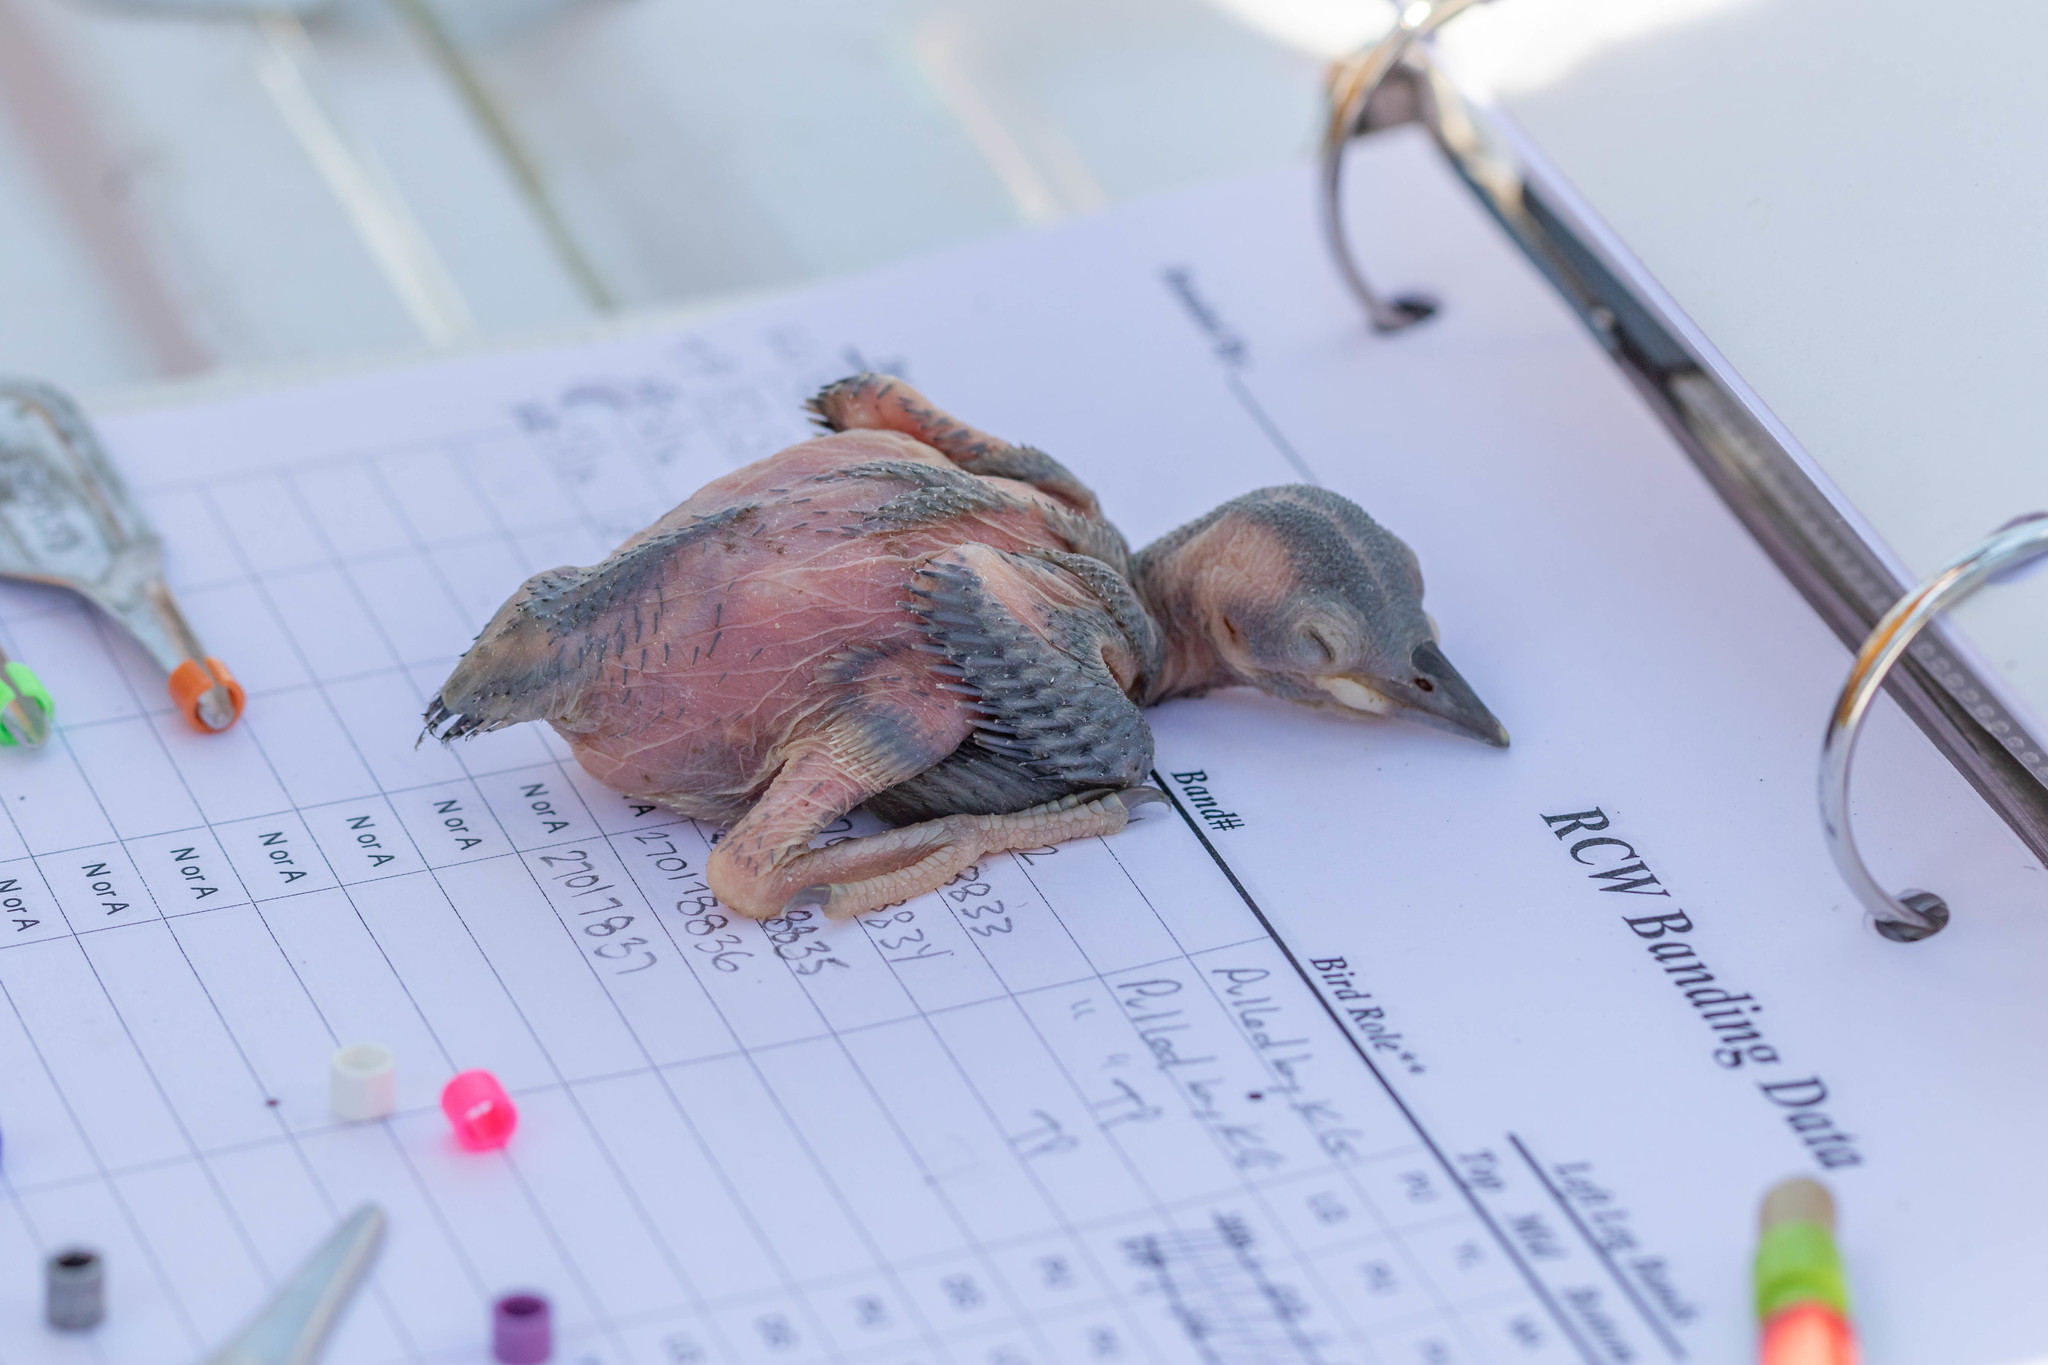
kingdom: Animalia
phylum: Chordata
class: Aves
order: Piciformes
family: Picidae
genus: Leuconotopicus
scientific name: Leuconotopicus borealis
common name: Red-cockaded woodpecker
